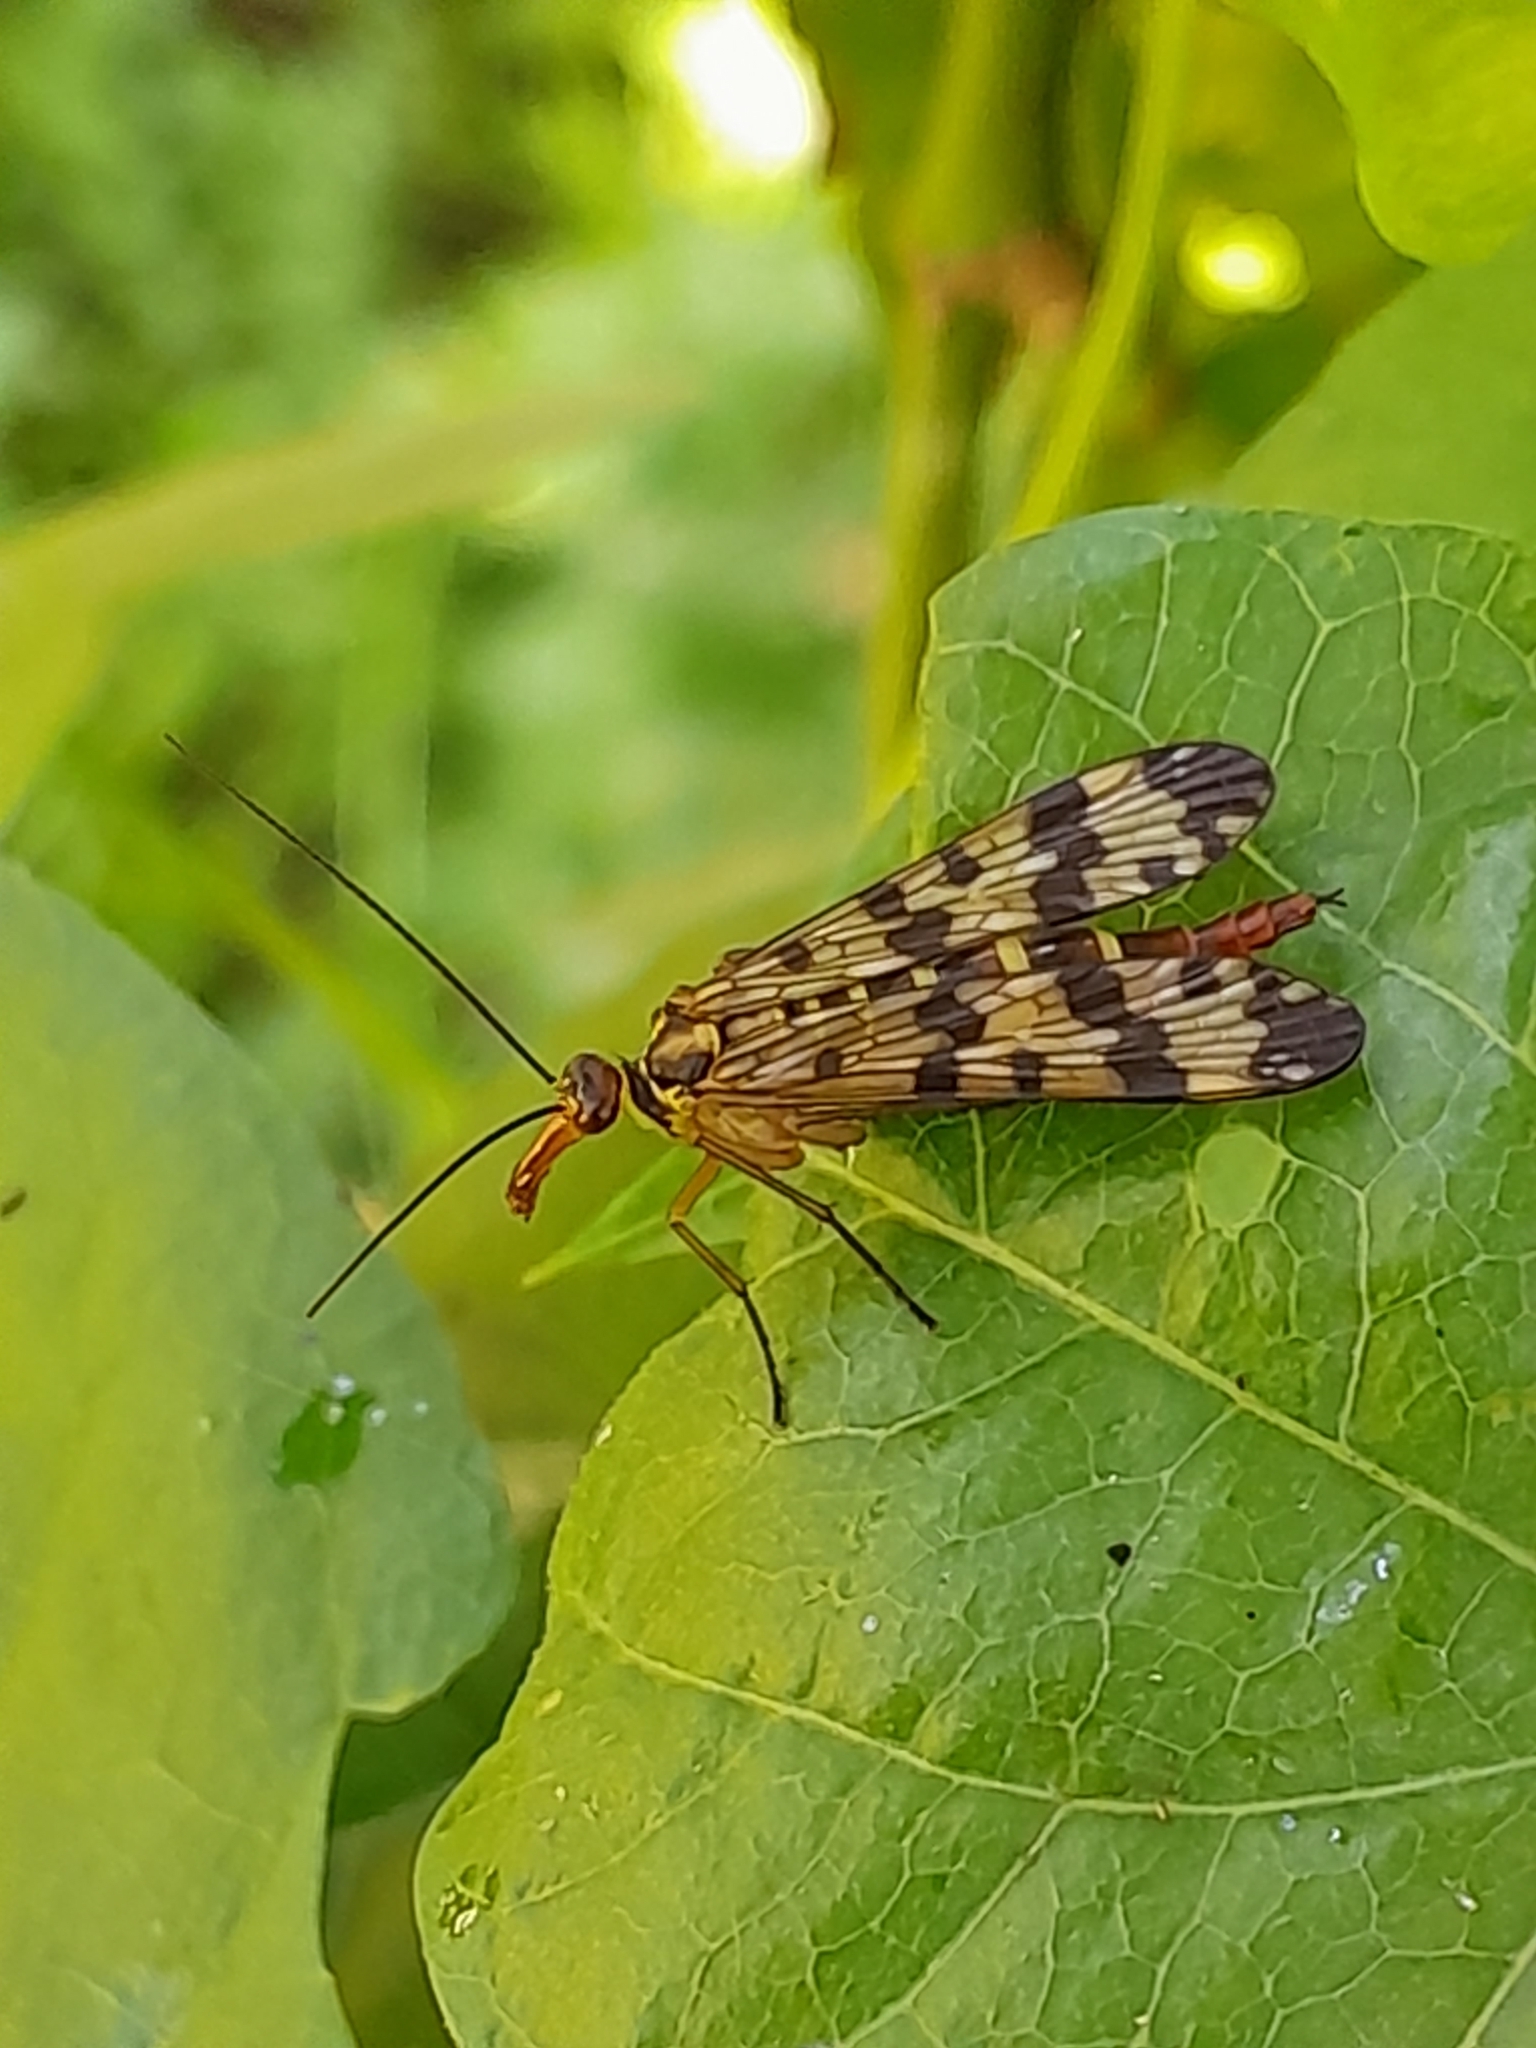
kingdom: Animalia
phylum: Arthropoda
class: Insecta
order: Mecoptera
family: Panorpidae
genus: Panorpa
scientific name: Panorpa communis
